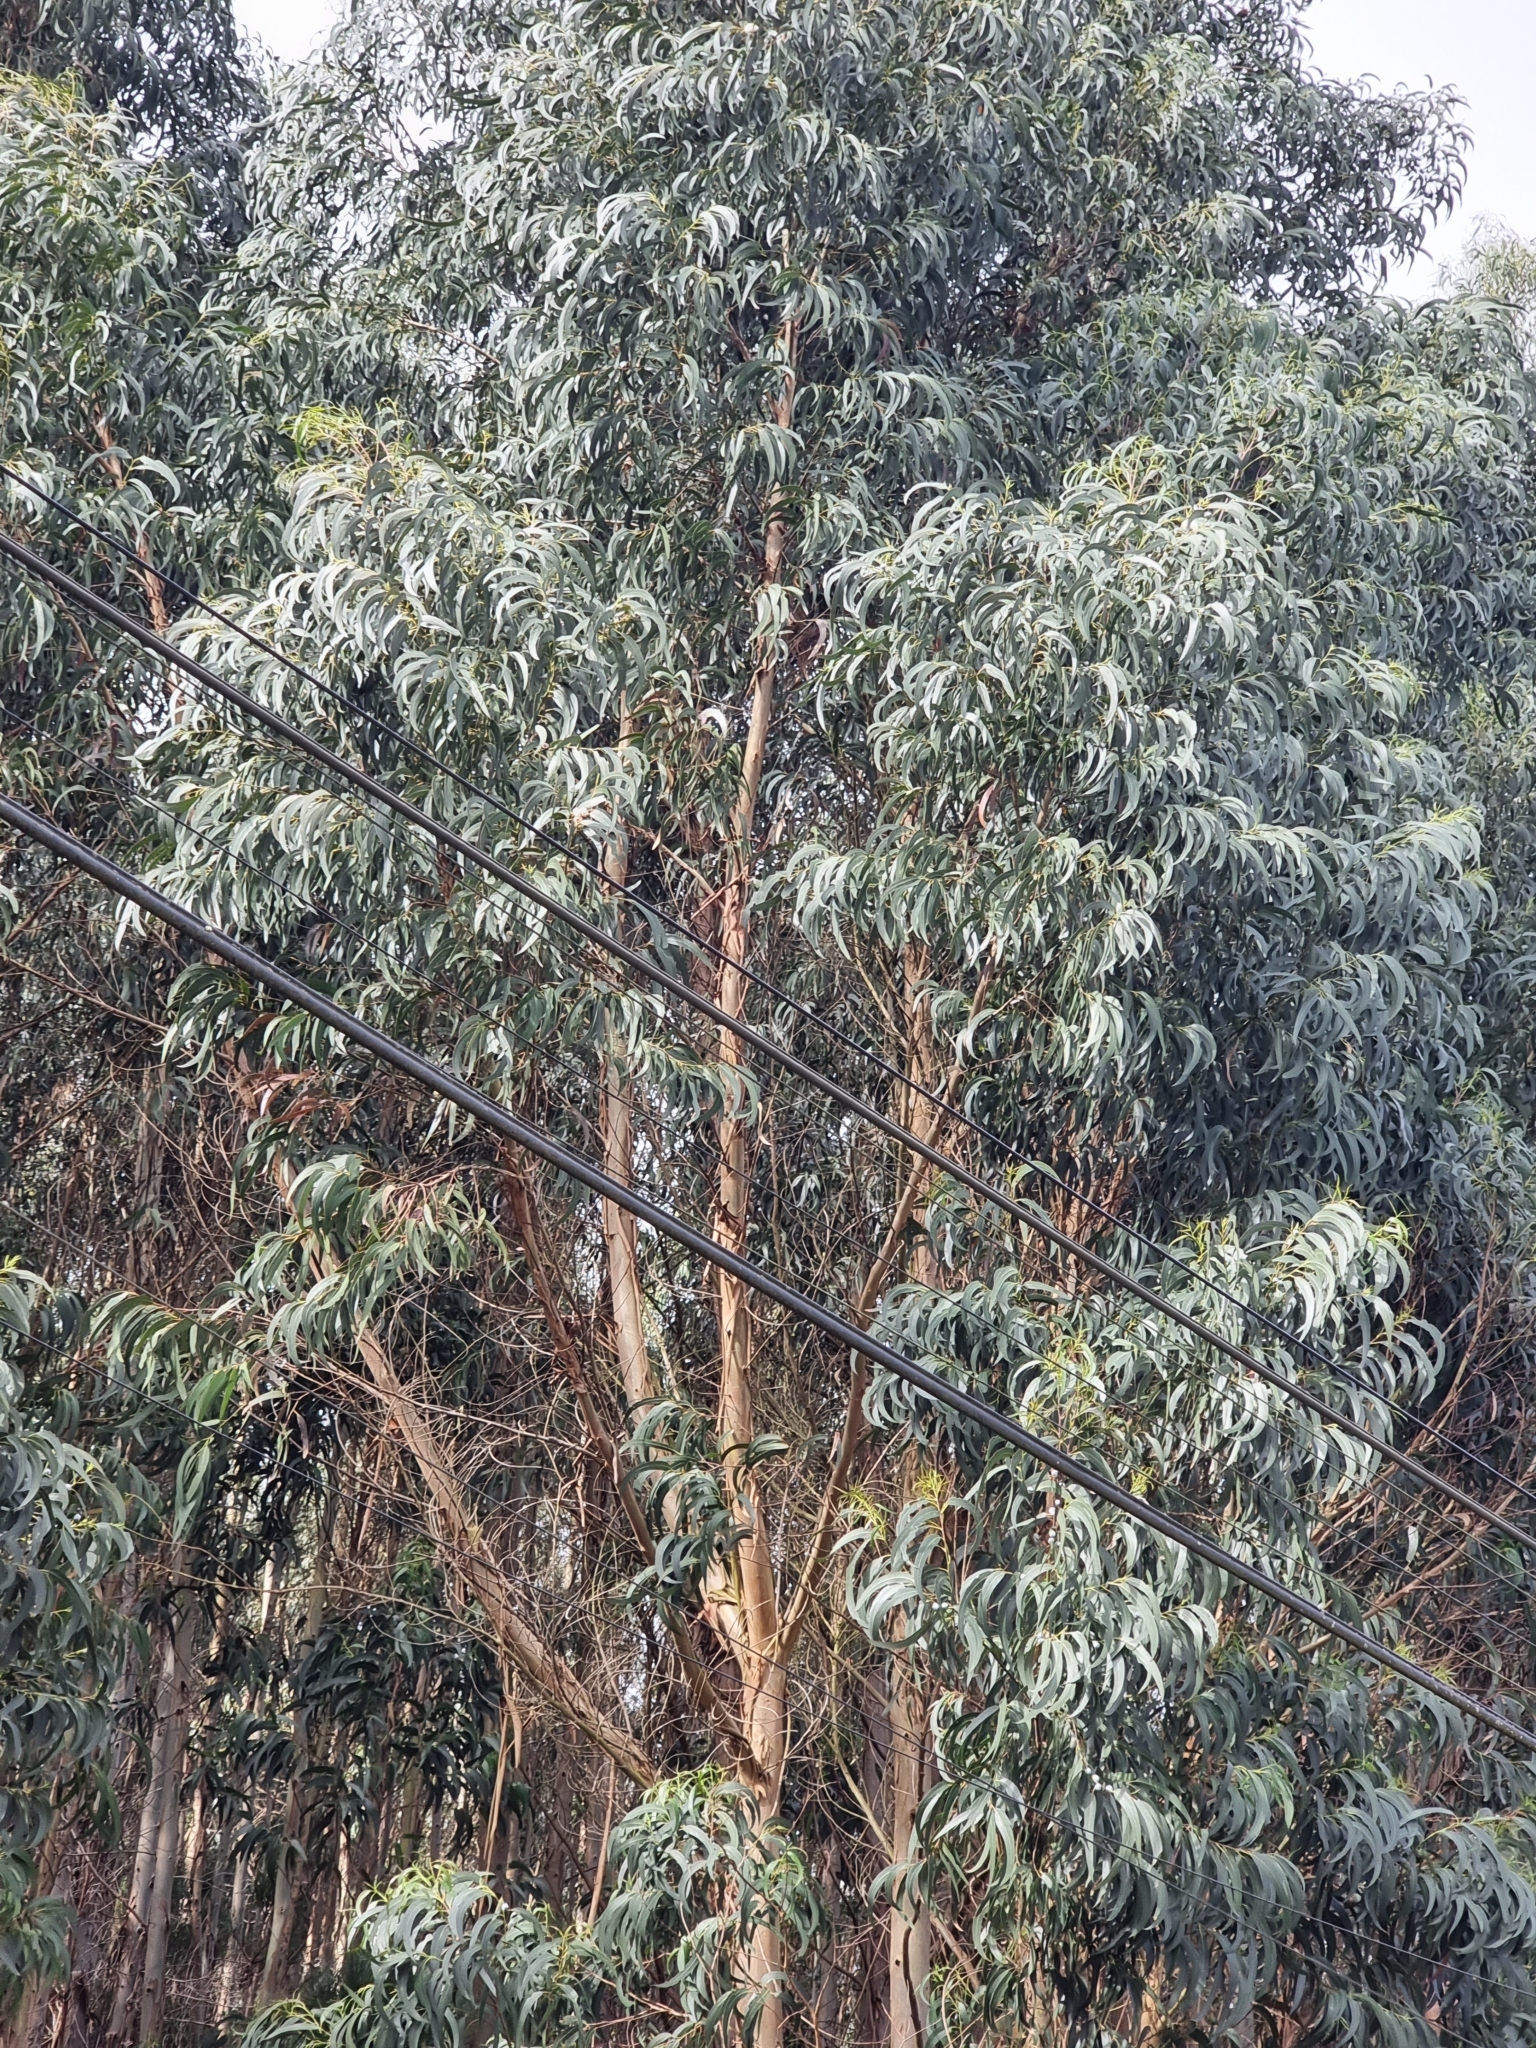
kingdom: Plantae
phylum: Tracheophyta
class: Magnoliopsida
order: Myrtales
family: Myrtaceae
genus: Eucalyptus
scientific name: Eucalyptus globulus
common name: Southern blue-gum
